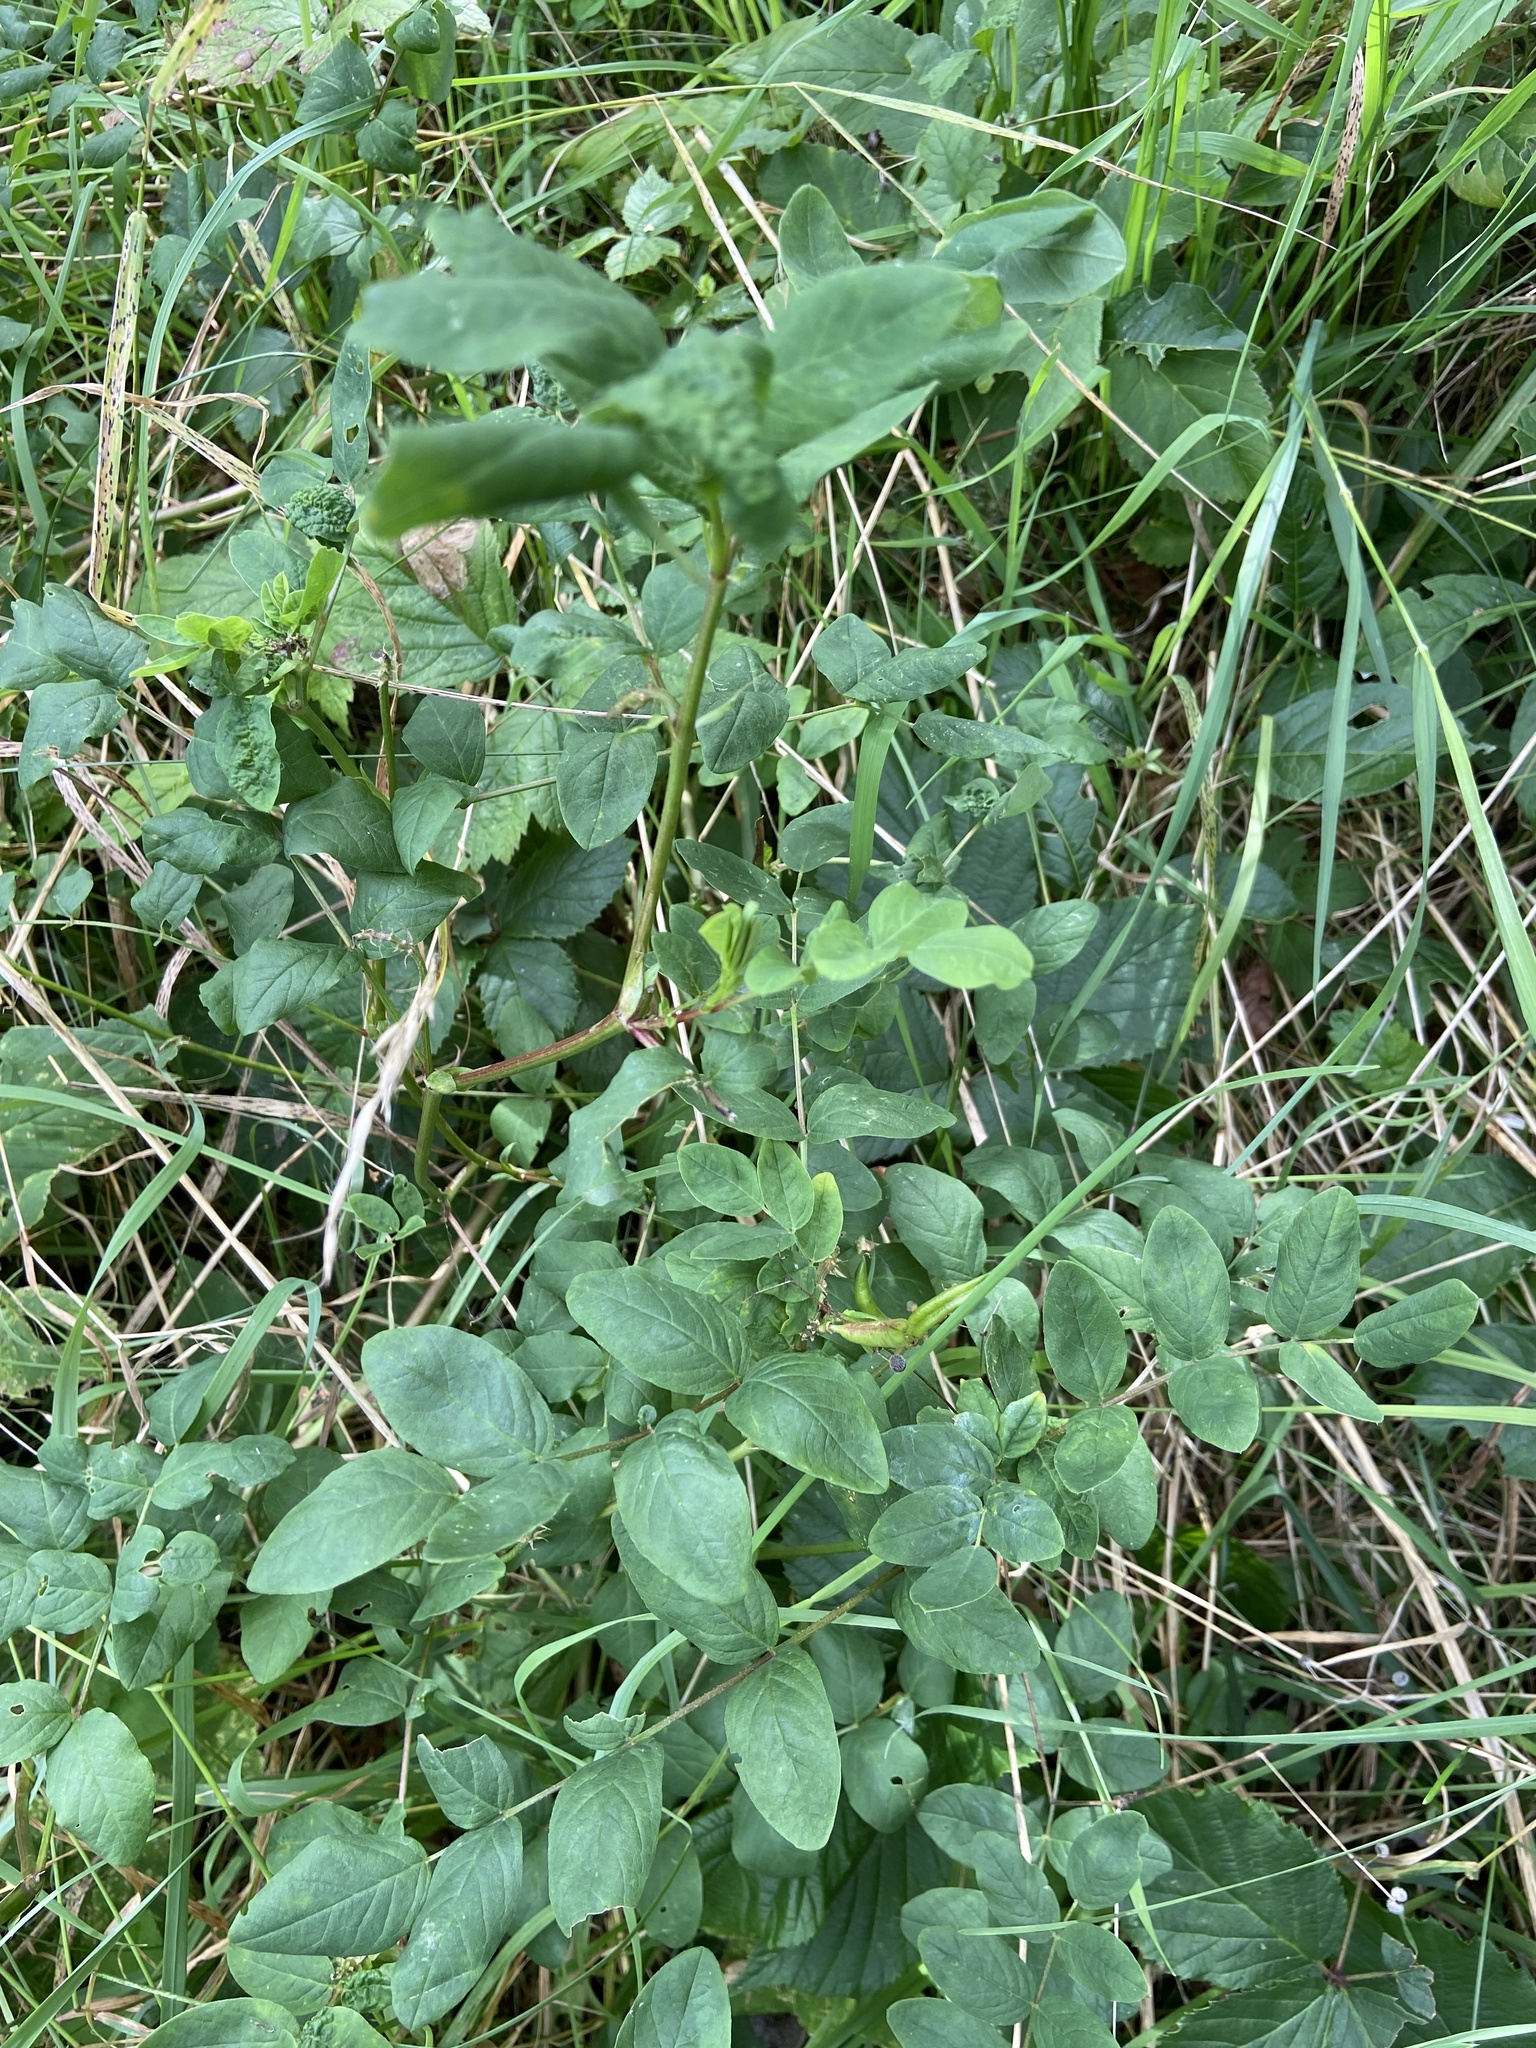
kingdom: Plantae
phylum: Tracheophyta
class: Magnoliopsida
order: Fabales
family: Fabaceae
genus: Astragalus
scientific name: Astragalus glycyphyllos
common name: Wild liquorice
